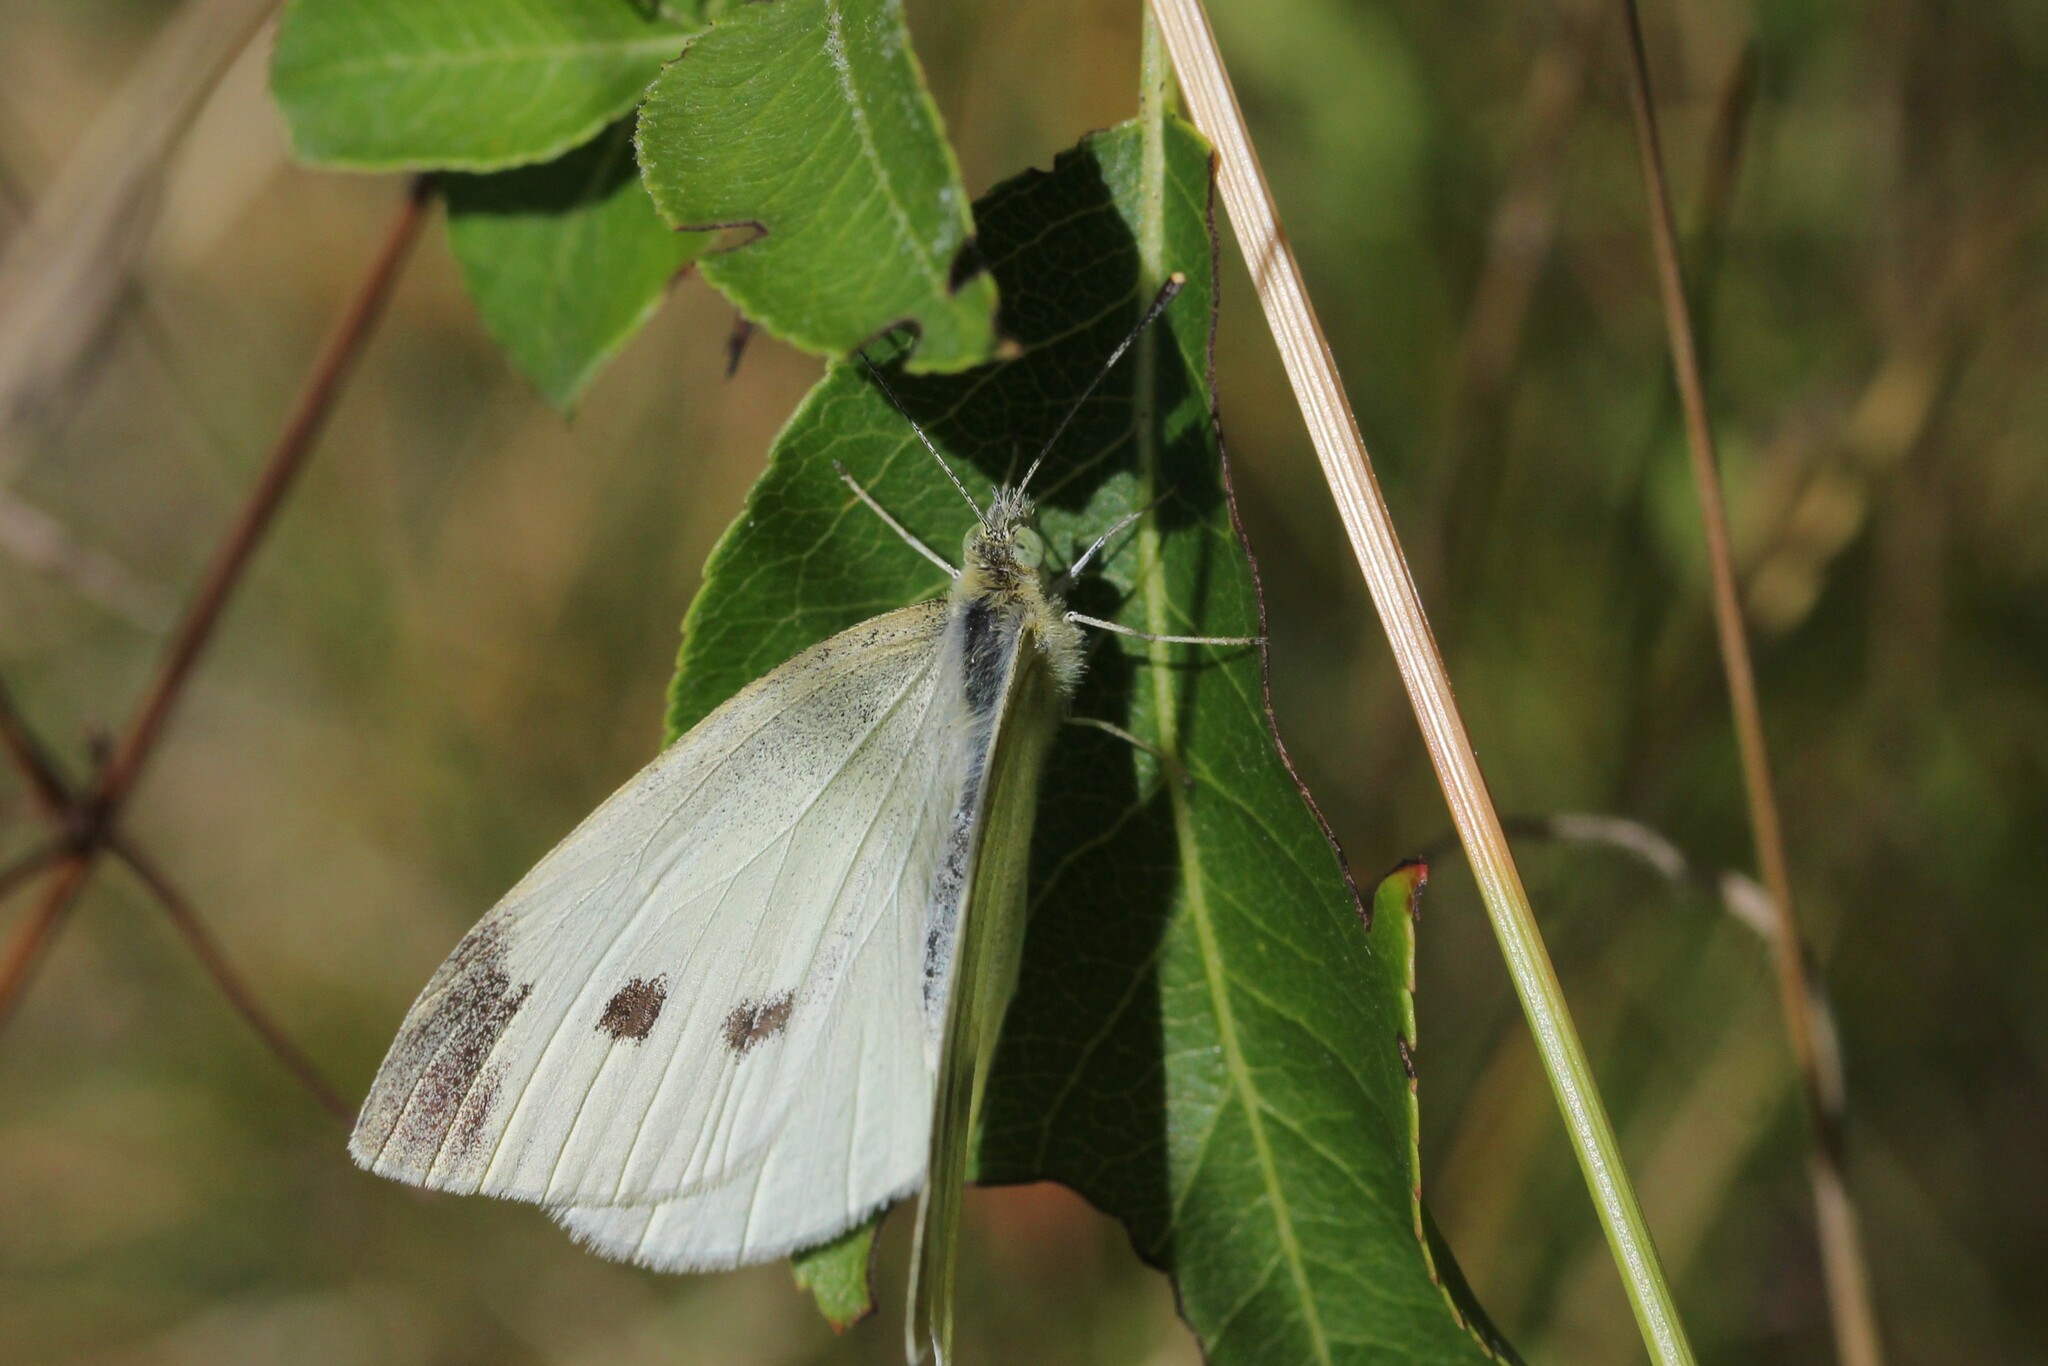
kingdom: Animalia
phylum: Arthropoda
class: Insecta
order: Lepidoptera
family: Pieridae
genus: Pieris
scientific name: Pieris rapae
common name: Small white
